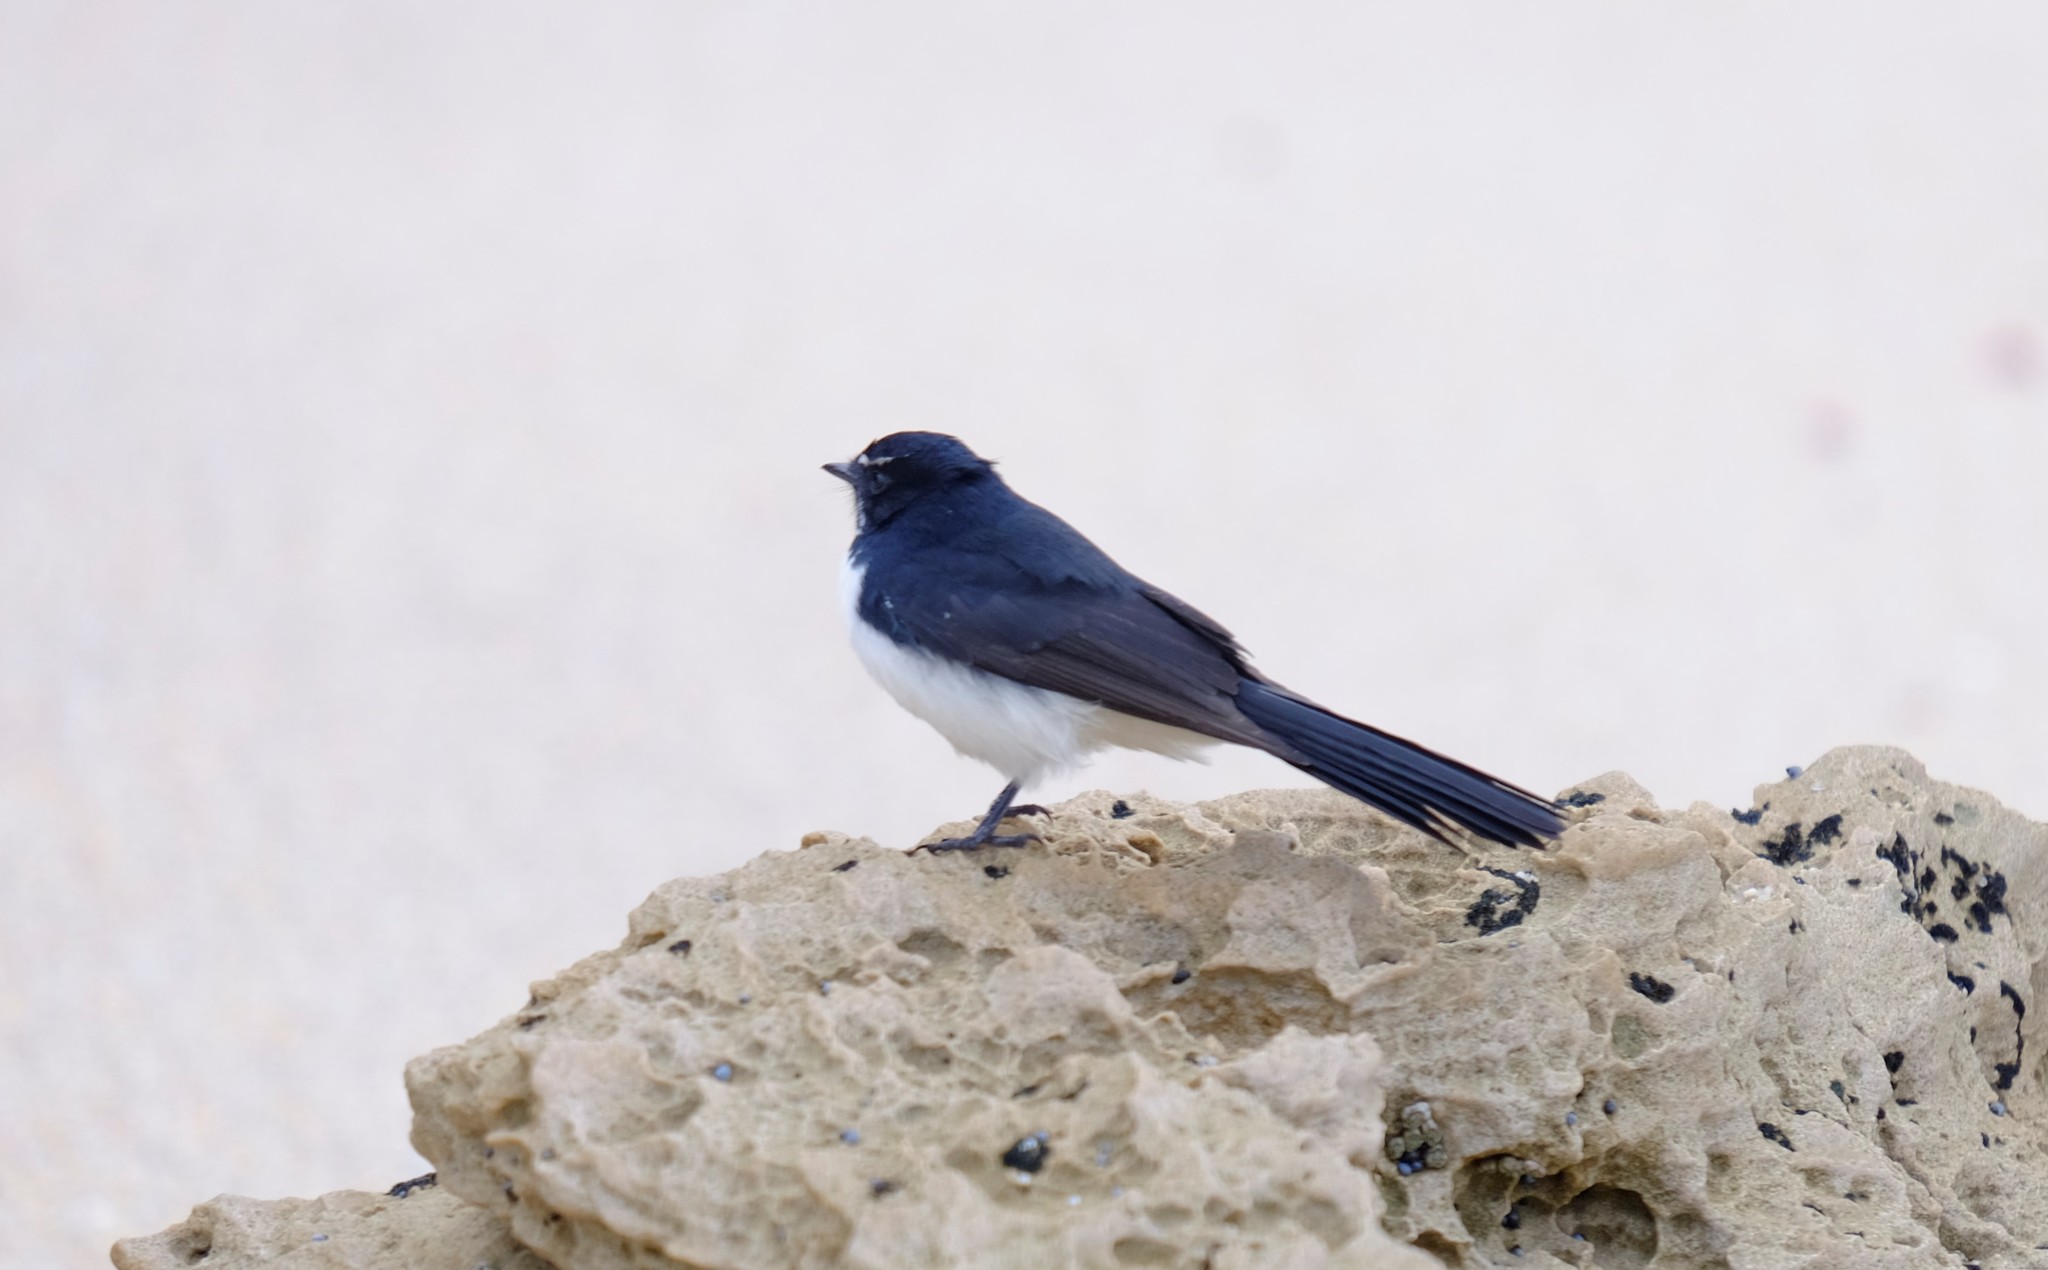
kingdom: Animalia
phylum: Chordata
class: Aves
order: Passeriformes
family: Rhipiduridae
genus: Rhipidura
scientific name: Rhipidura leucophrys
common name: Willie wagtail
